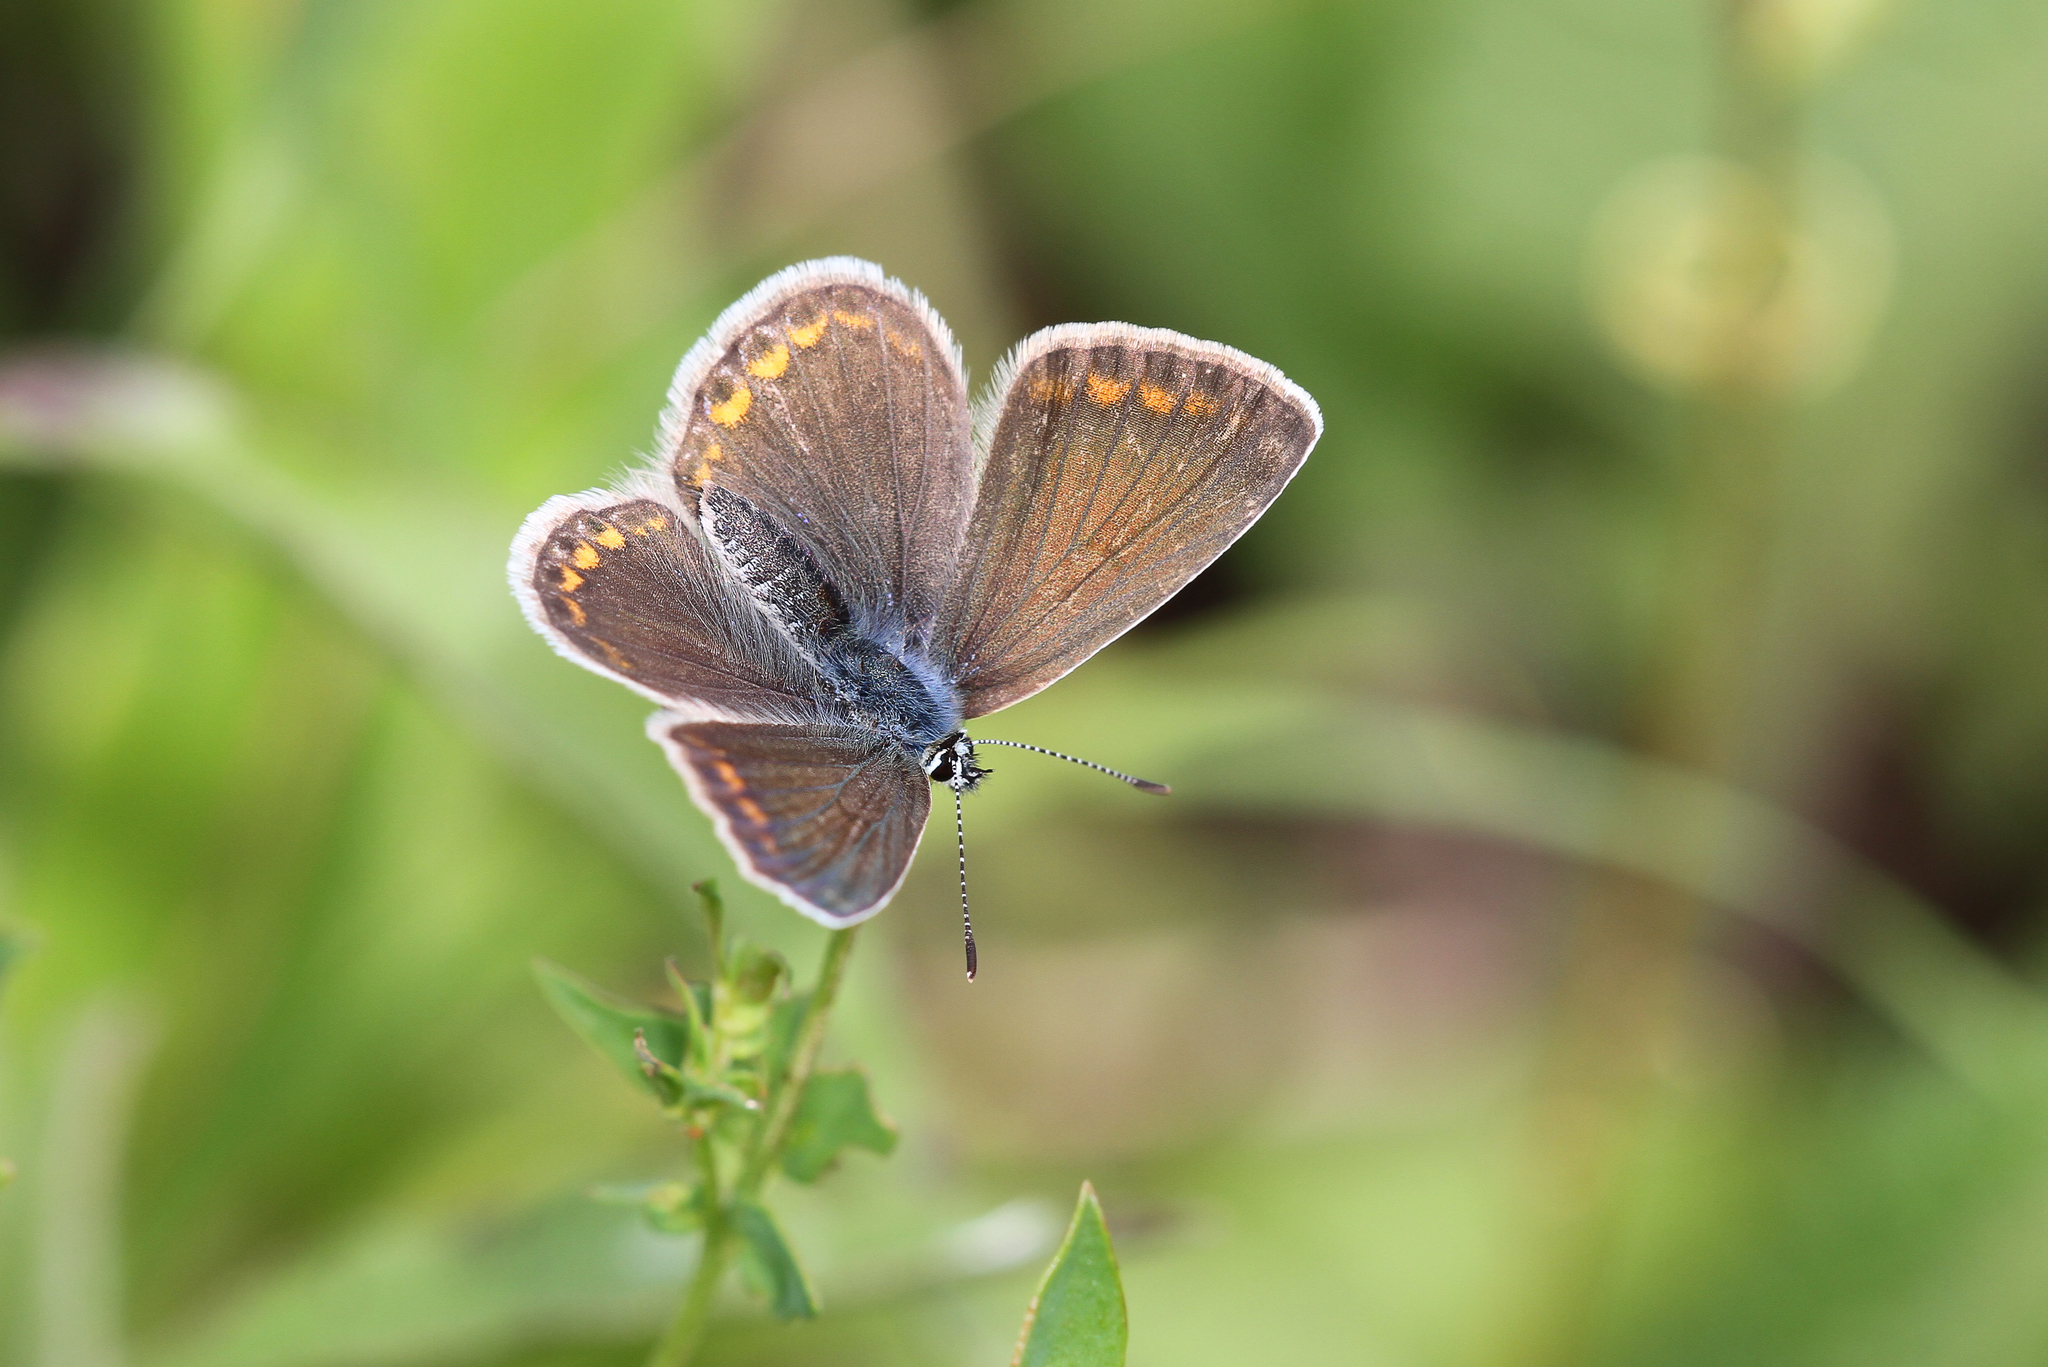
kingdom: Animalia
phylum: Arthropoda
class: Insecta
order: Lepidoptera
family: Lycaenidae
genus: Polyommatus
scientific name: Polyommatus icarus
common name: Common blue
